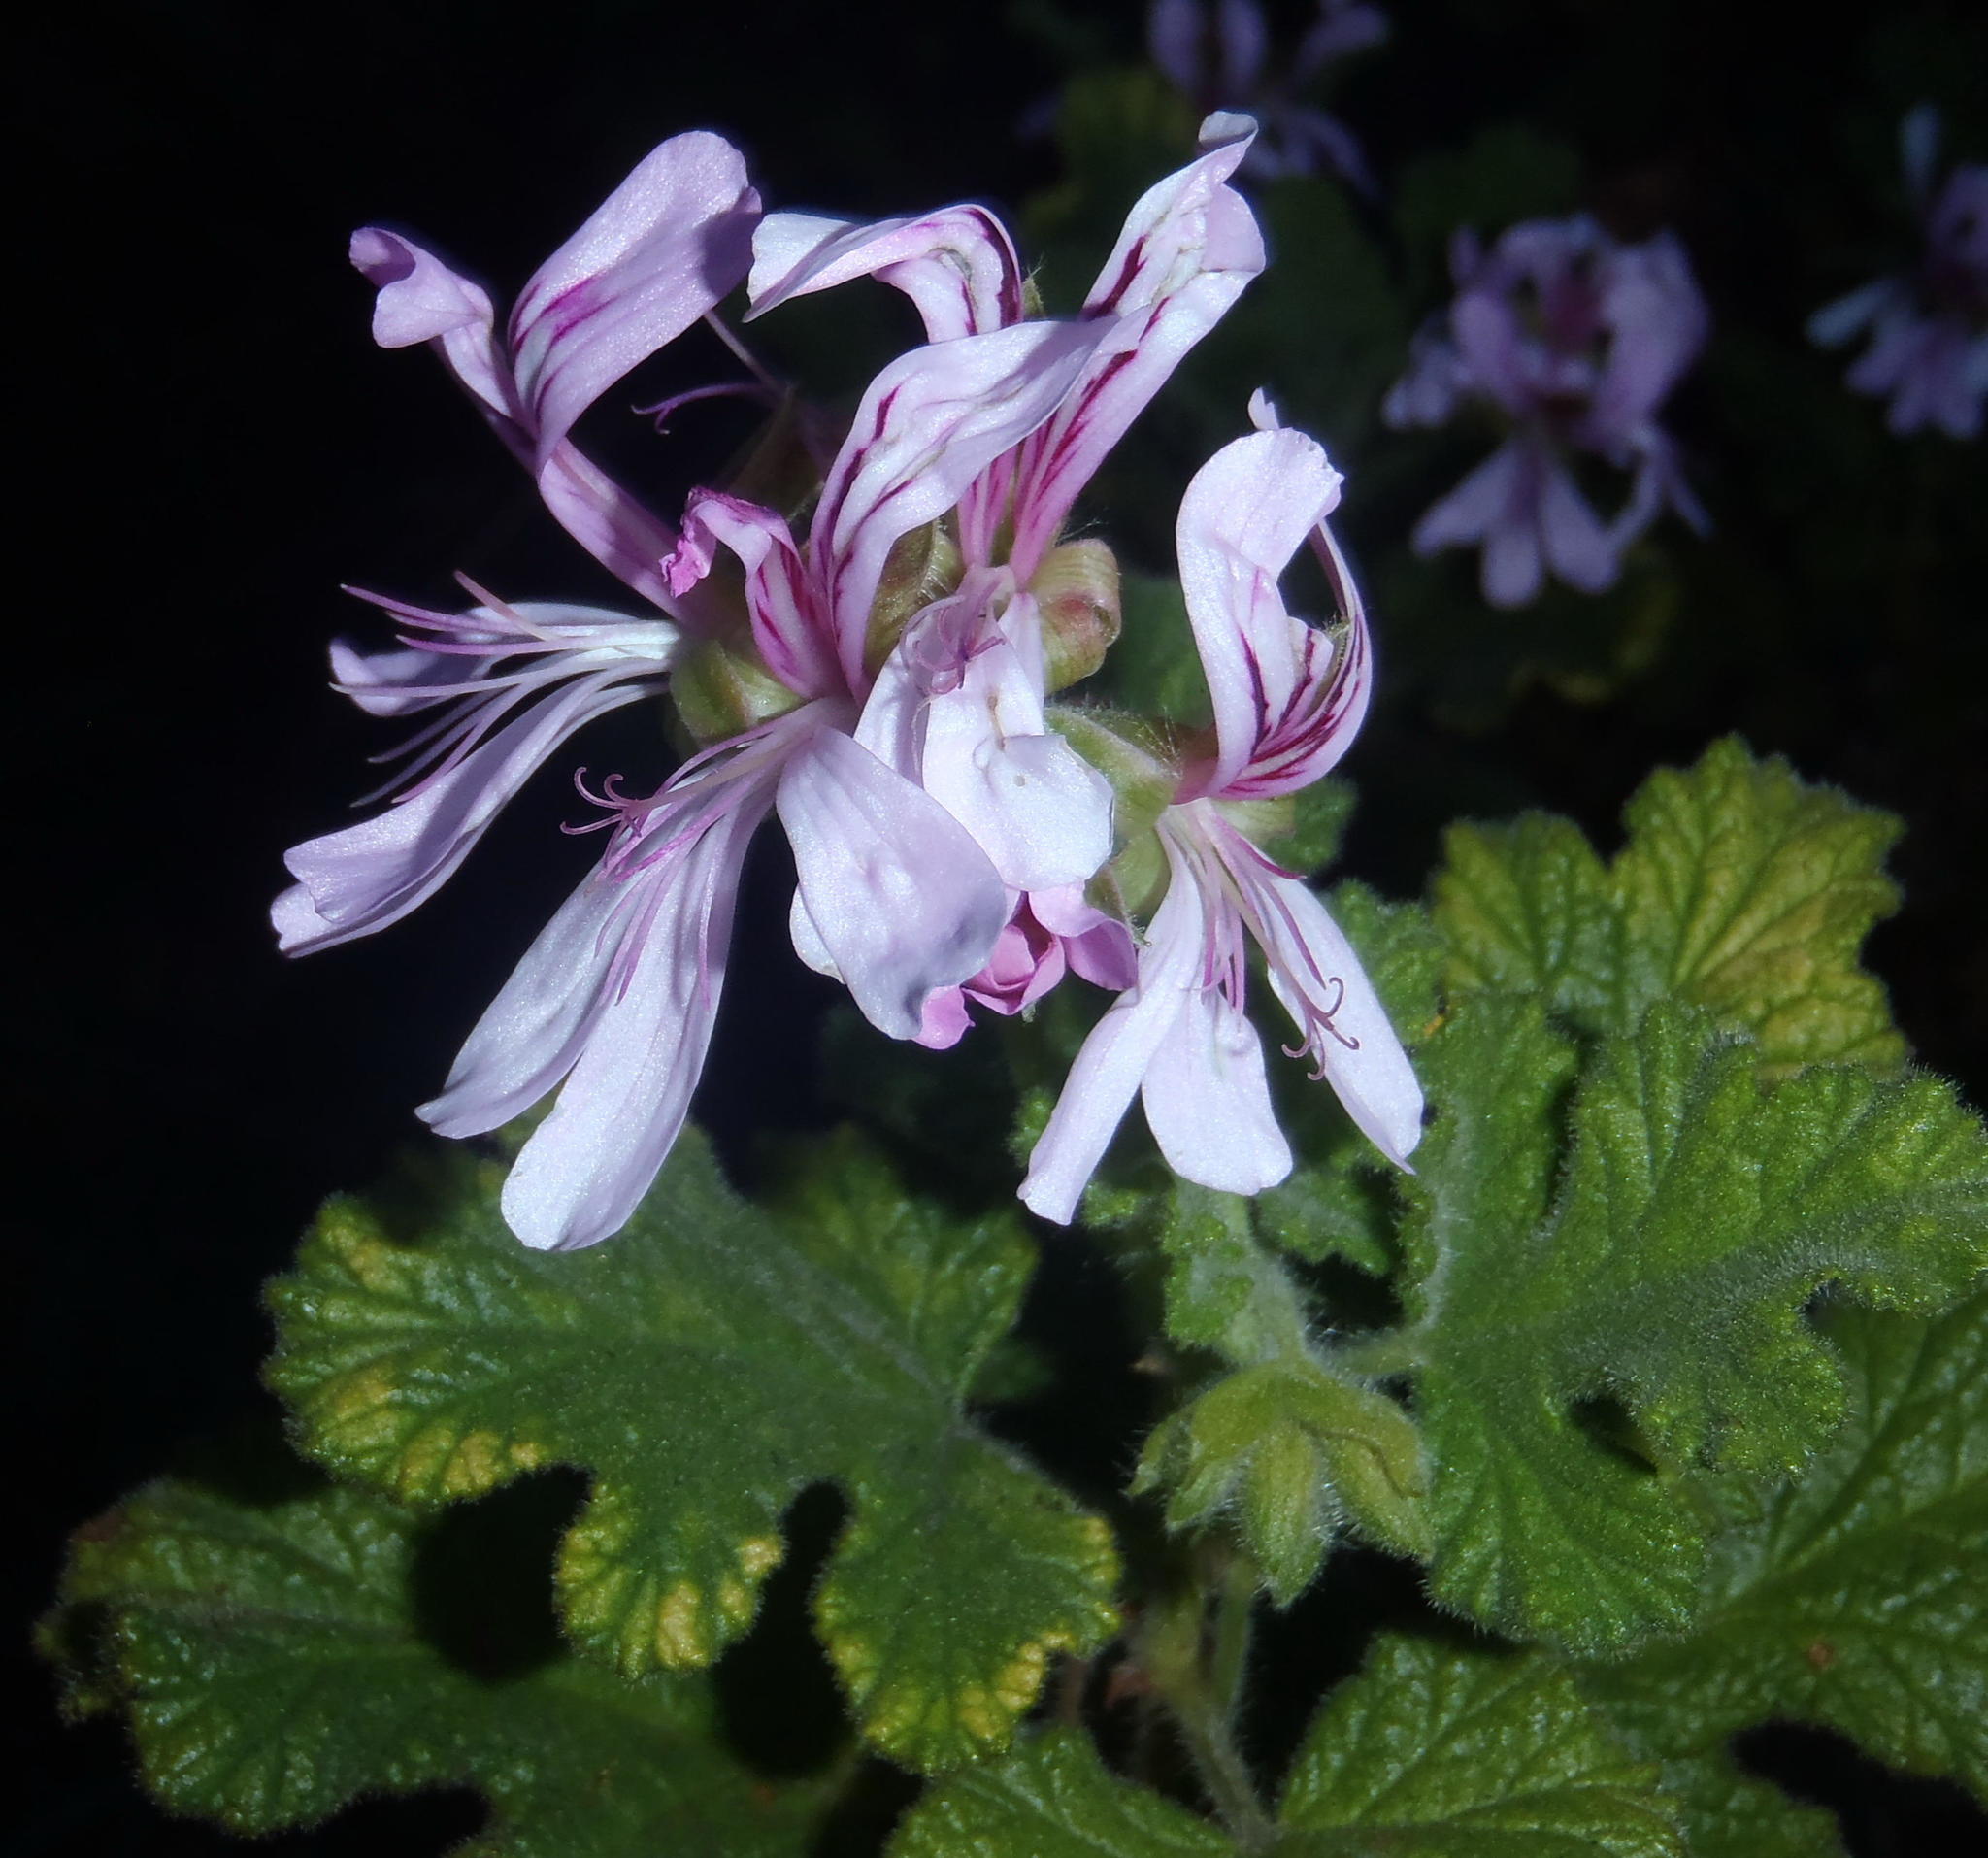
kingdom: Plantae
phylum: Tracheophyta
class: Magnoliopsida
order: Geraniales
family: Geraniaceae
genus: Pelargonium
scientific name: Pelargonium panduriforme
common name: Oakleaf garden geranium
